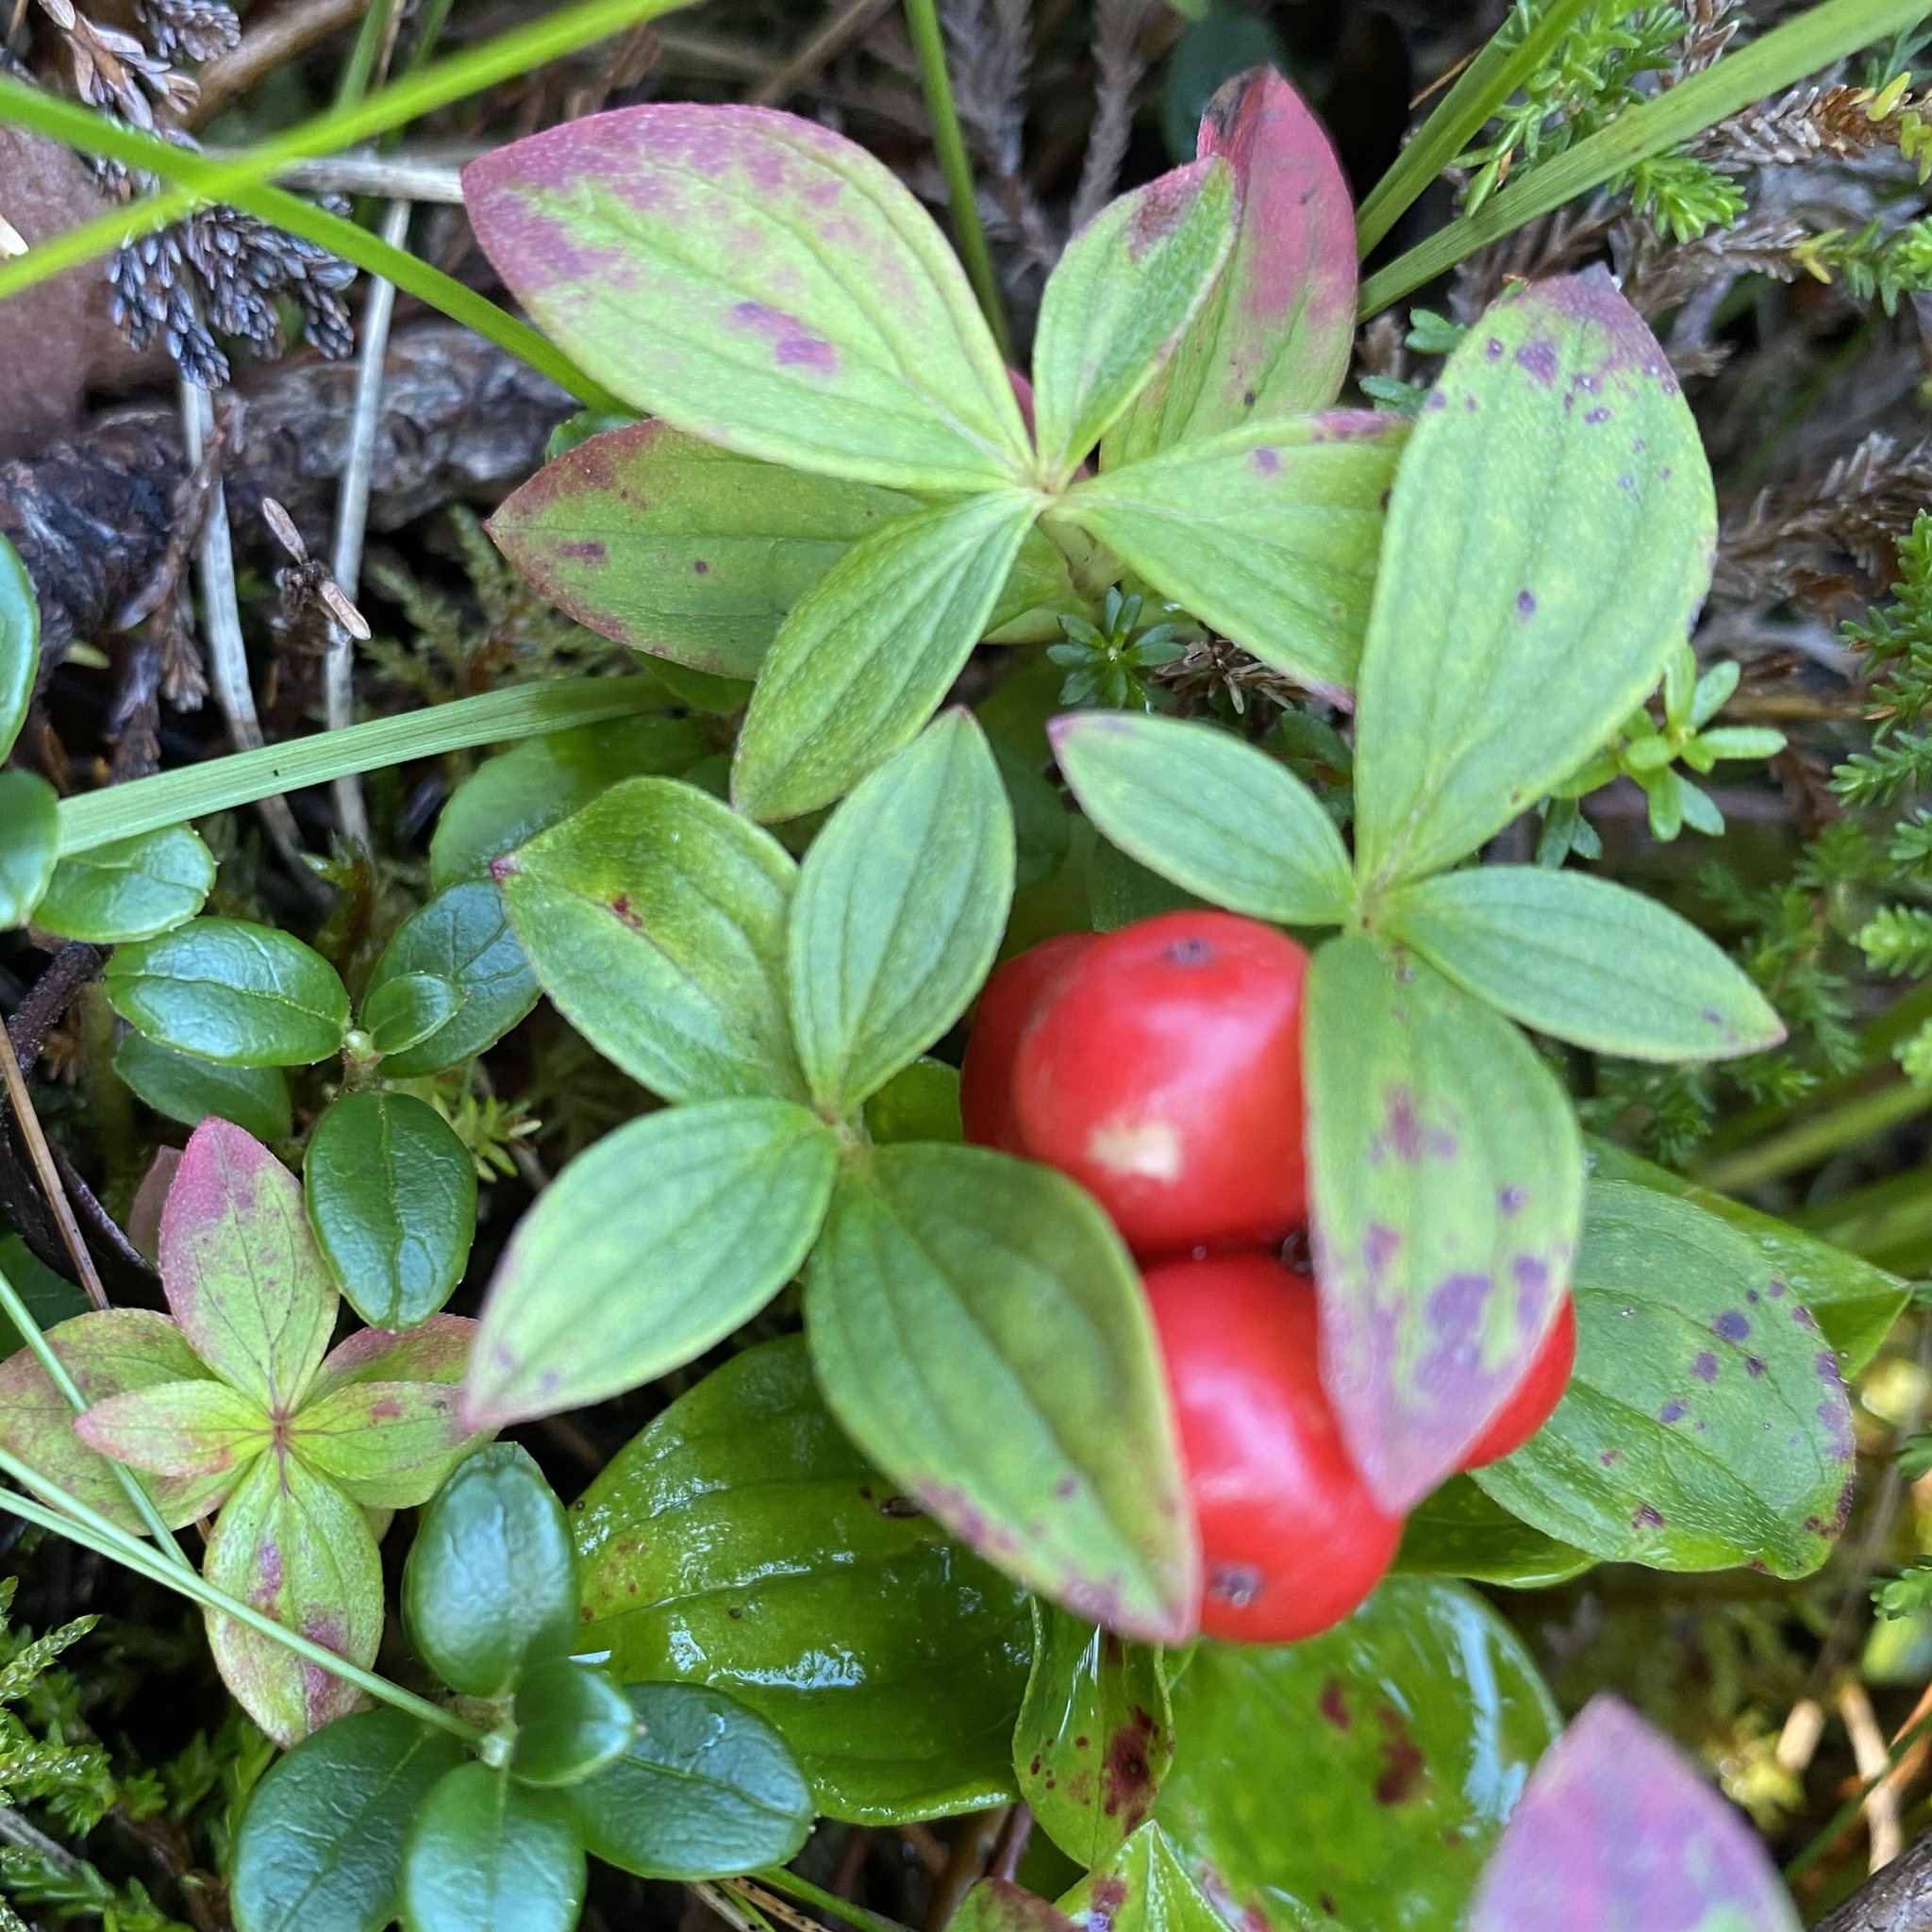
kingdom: Plantae
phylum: Tracheophyta
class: Magnoliopsida
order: Cornales
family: Cornaceae
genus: Cornus
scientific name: Cornus suecica
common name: Dwarf cornel
